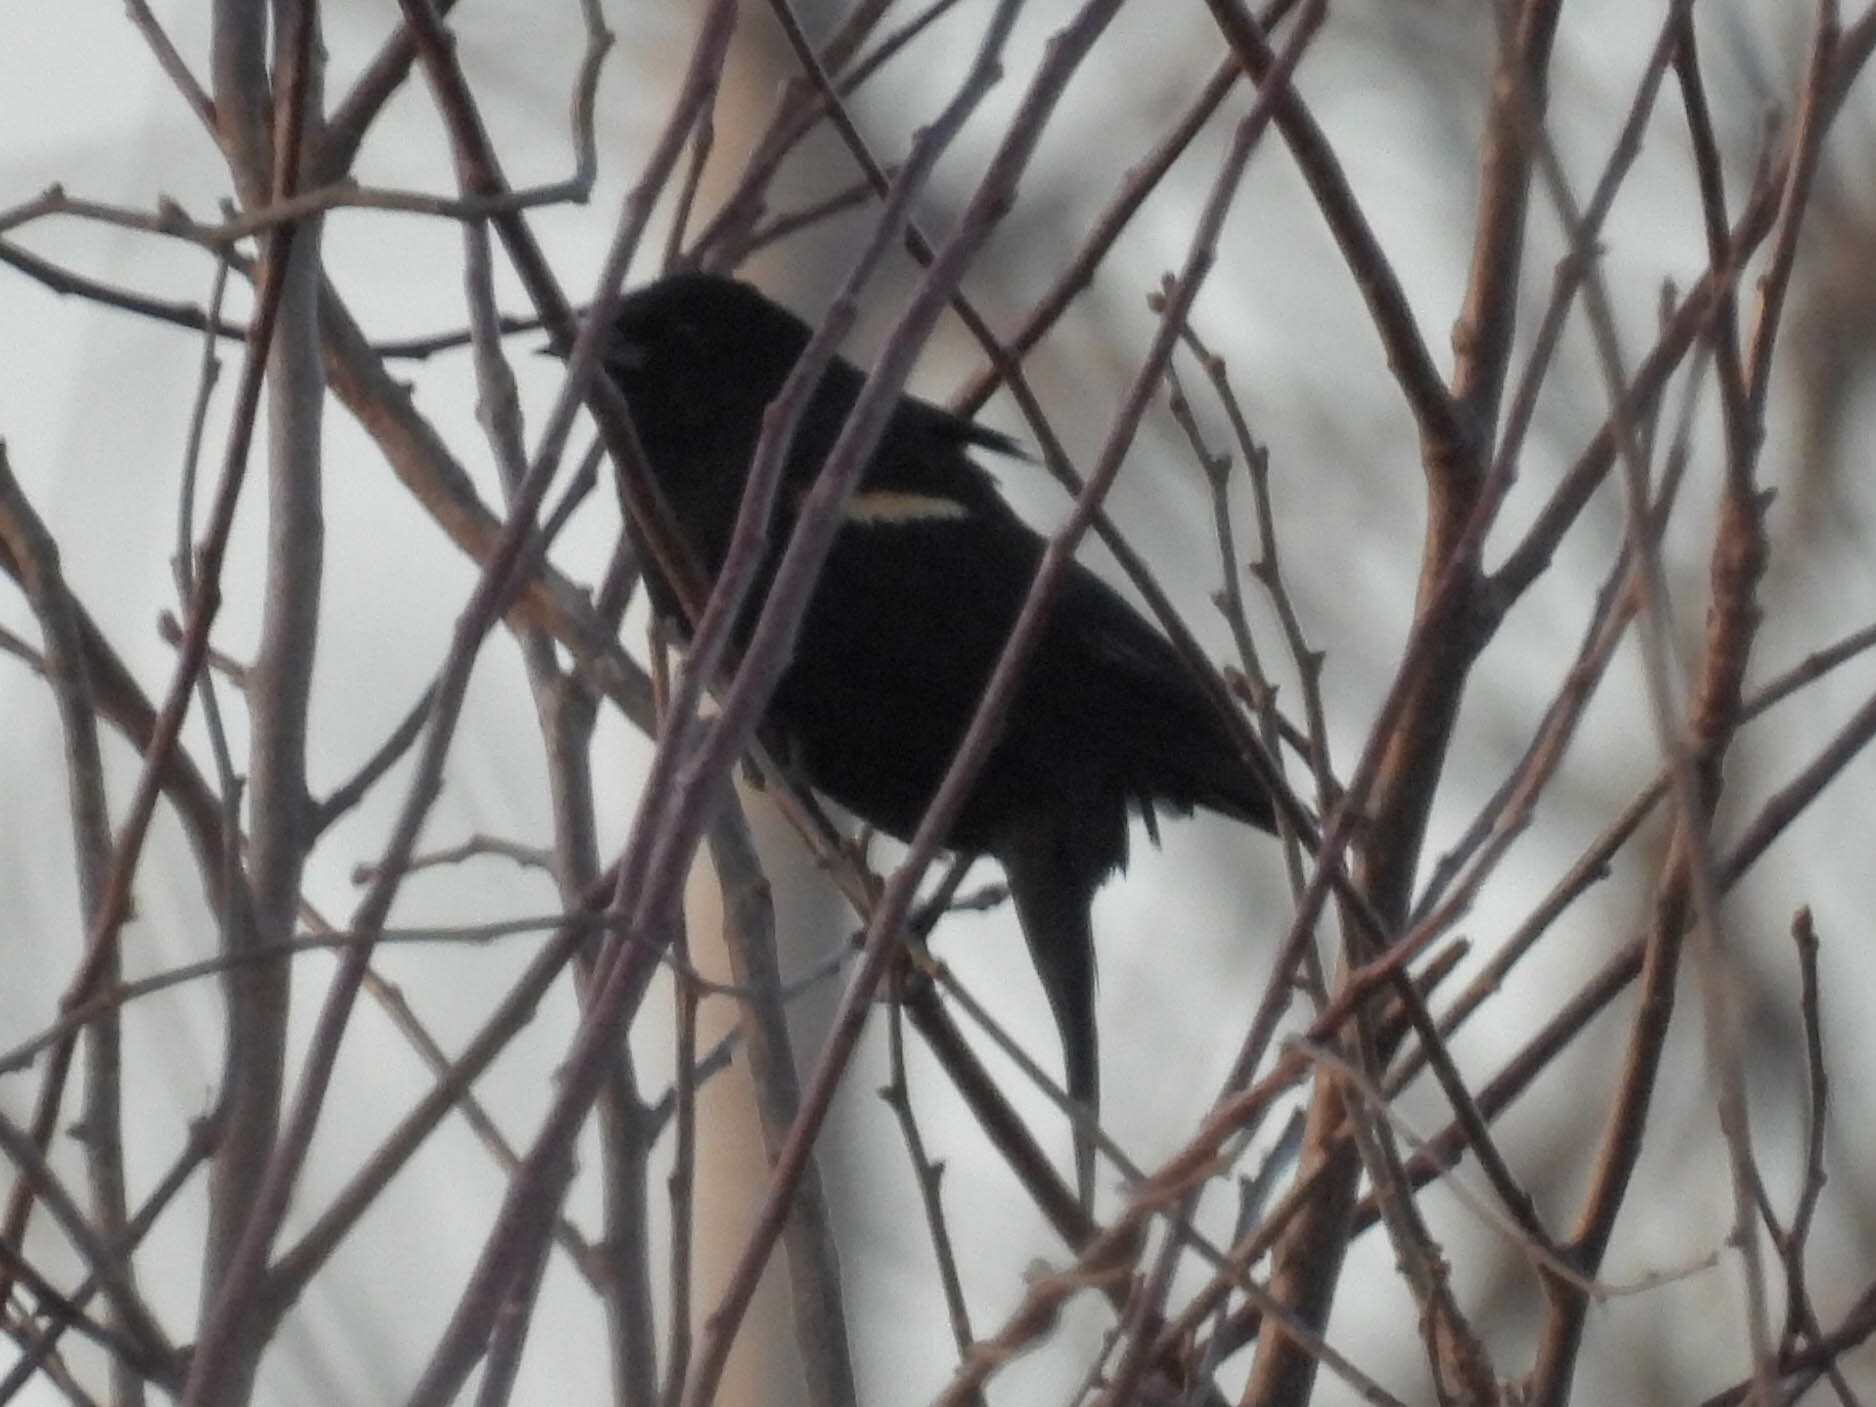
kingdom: Animalia
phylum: Chordata
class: Aves
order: Passeriformes
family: Icteridae
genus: Agelaius
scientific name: Agelaius phoeniceus
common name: Red-winged blackbird
